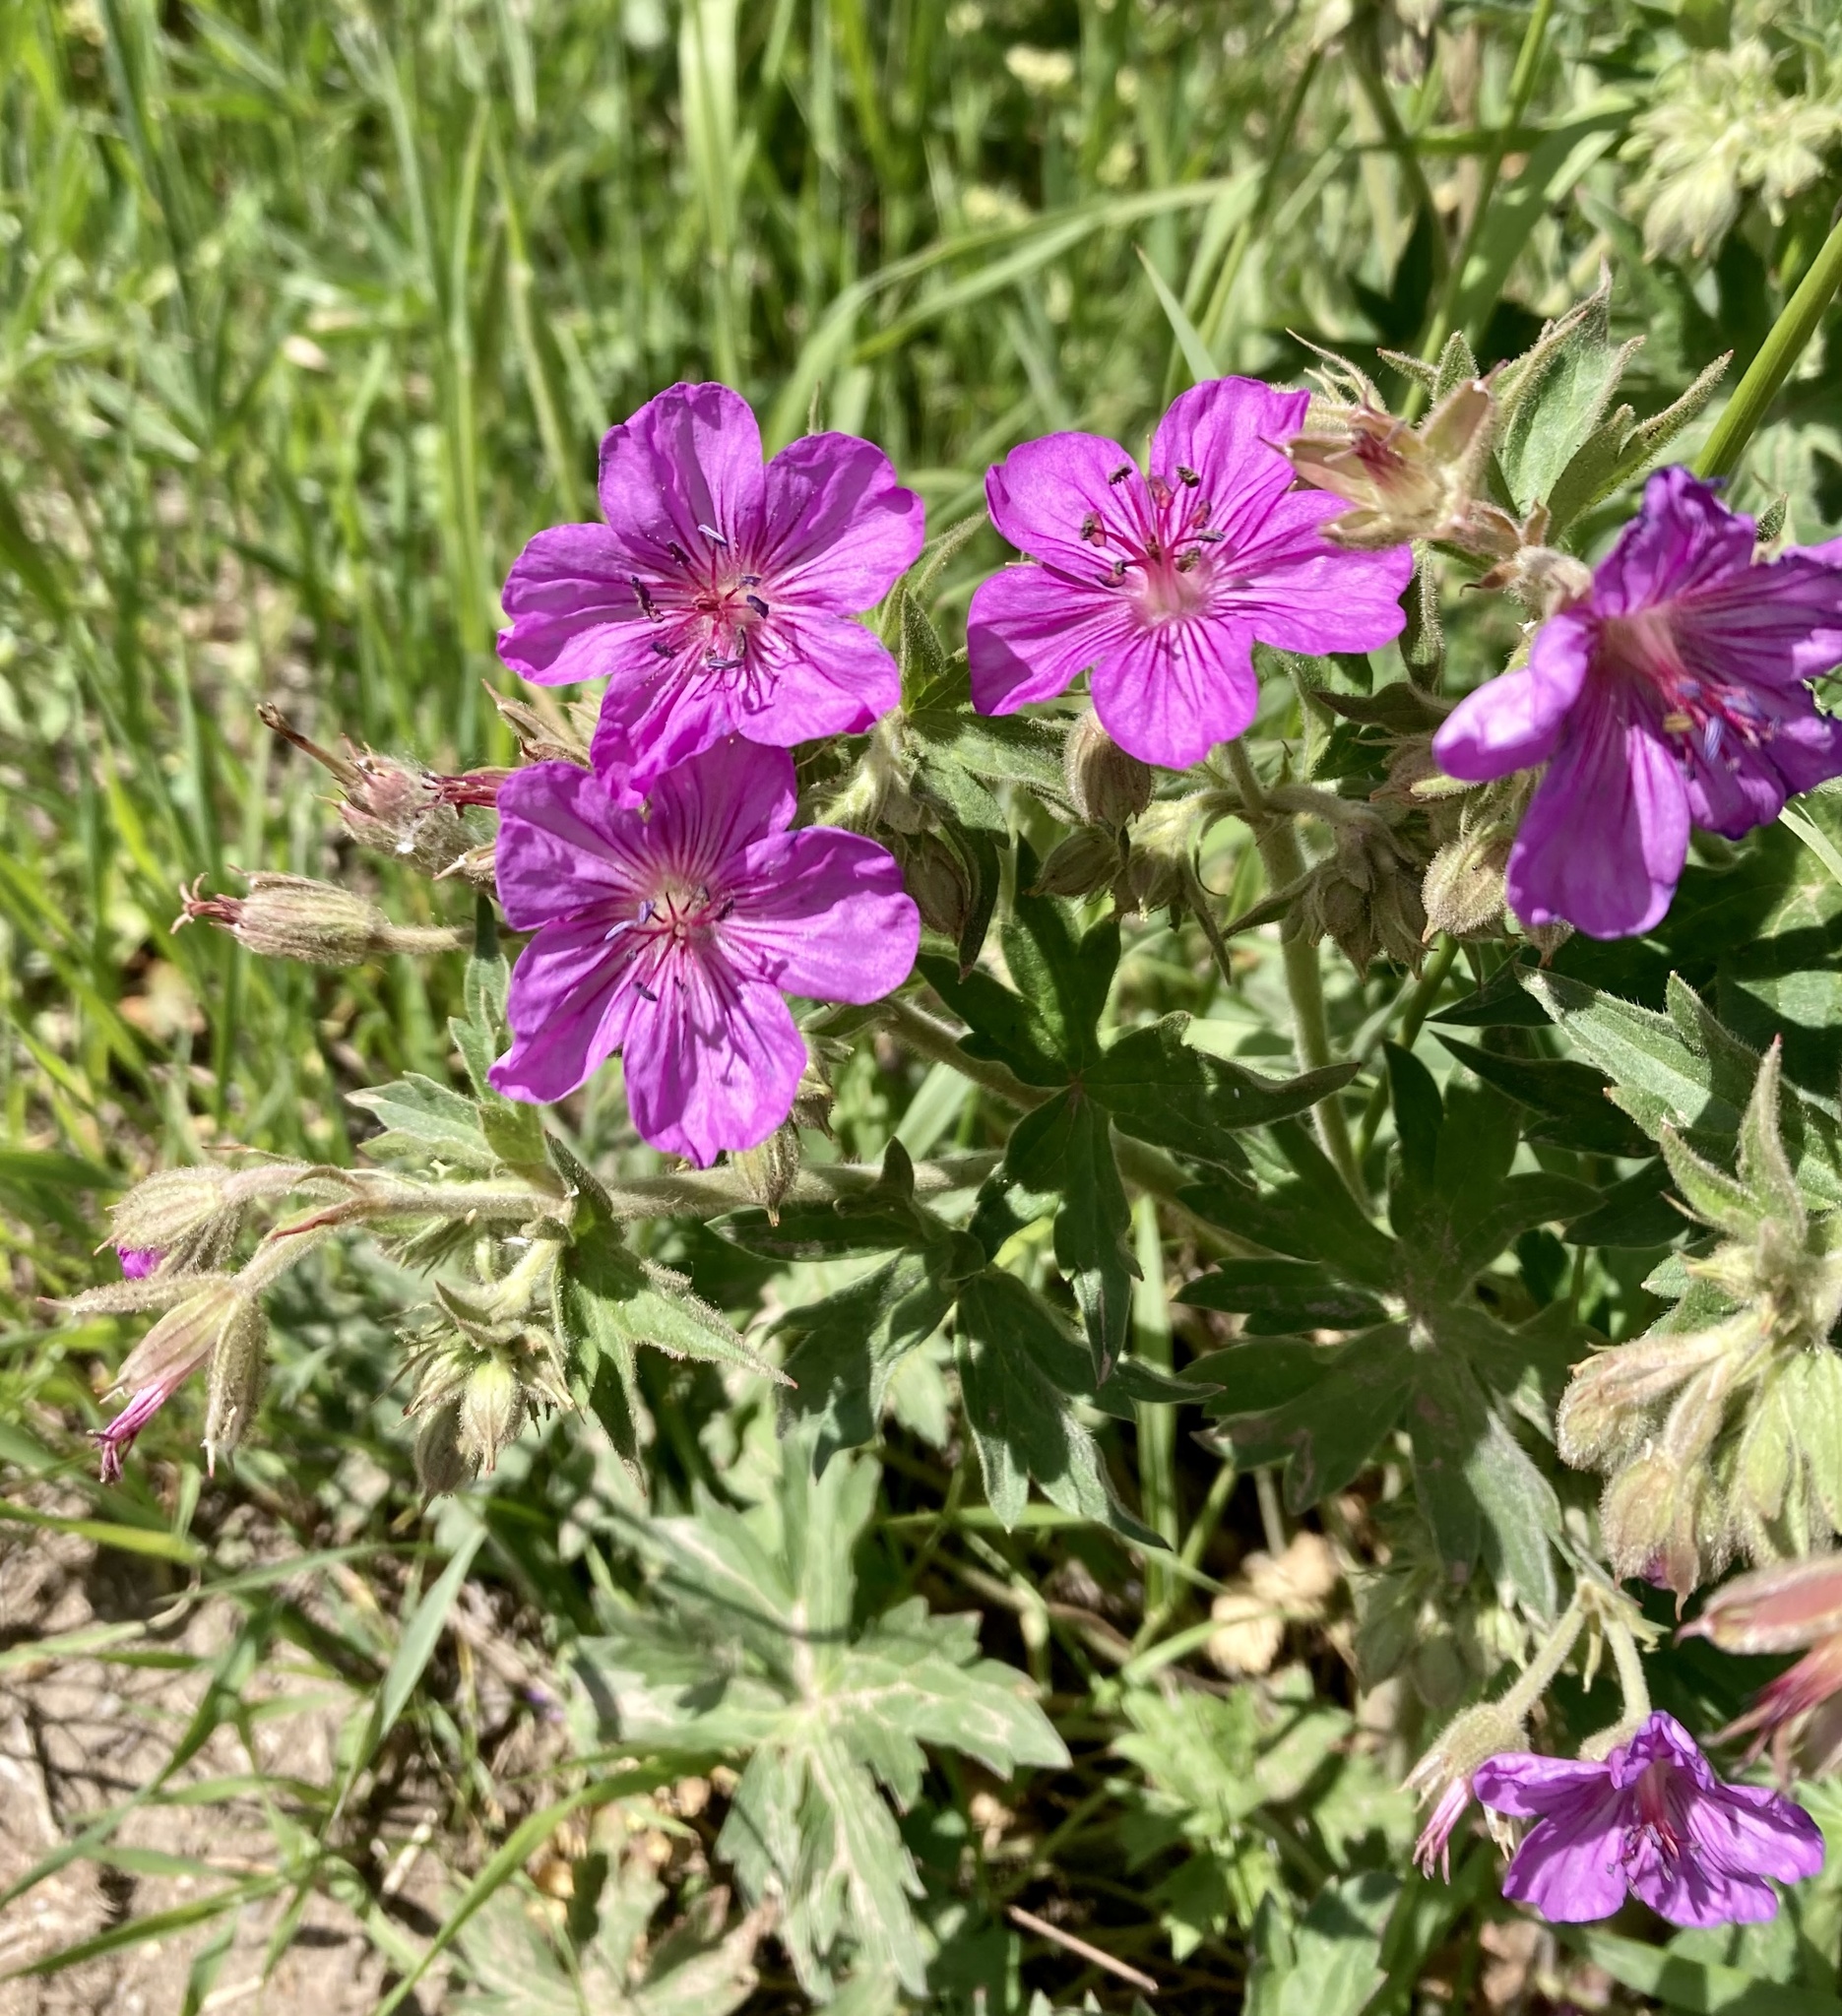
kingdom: Plantae
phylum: Tracheophyta
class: Magnoliopsida
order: Geraniales
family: Geraniaceae
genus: Geranium
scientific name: Geranium viscosissimum
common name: Purple geranium
